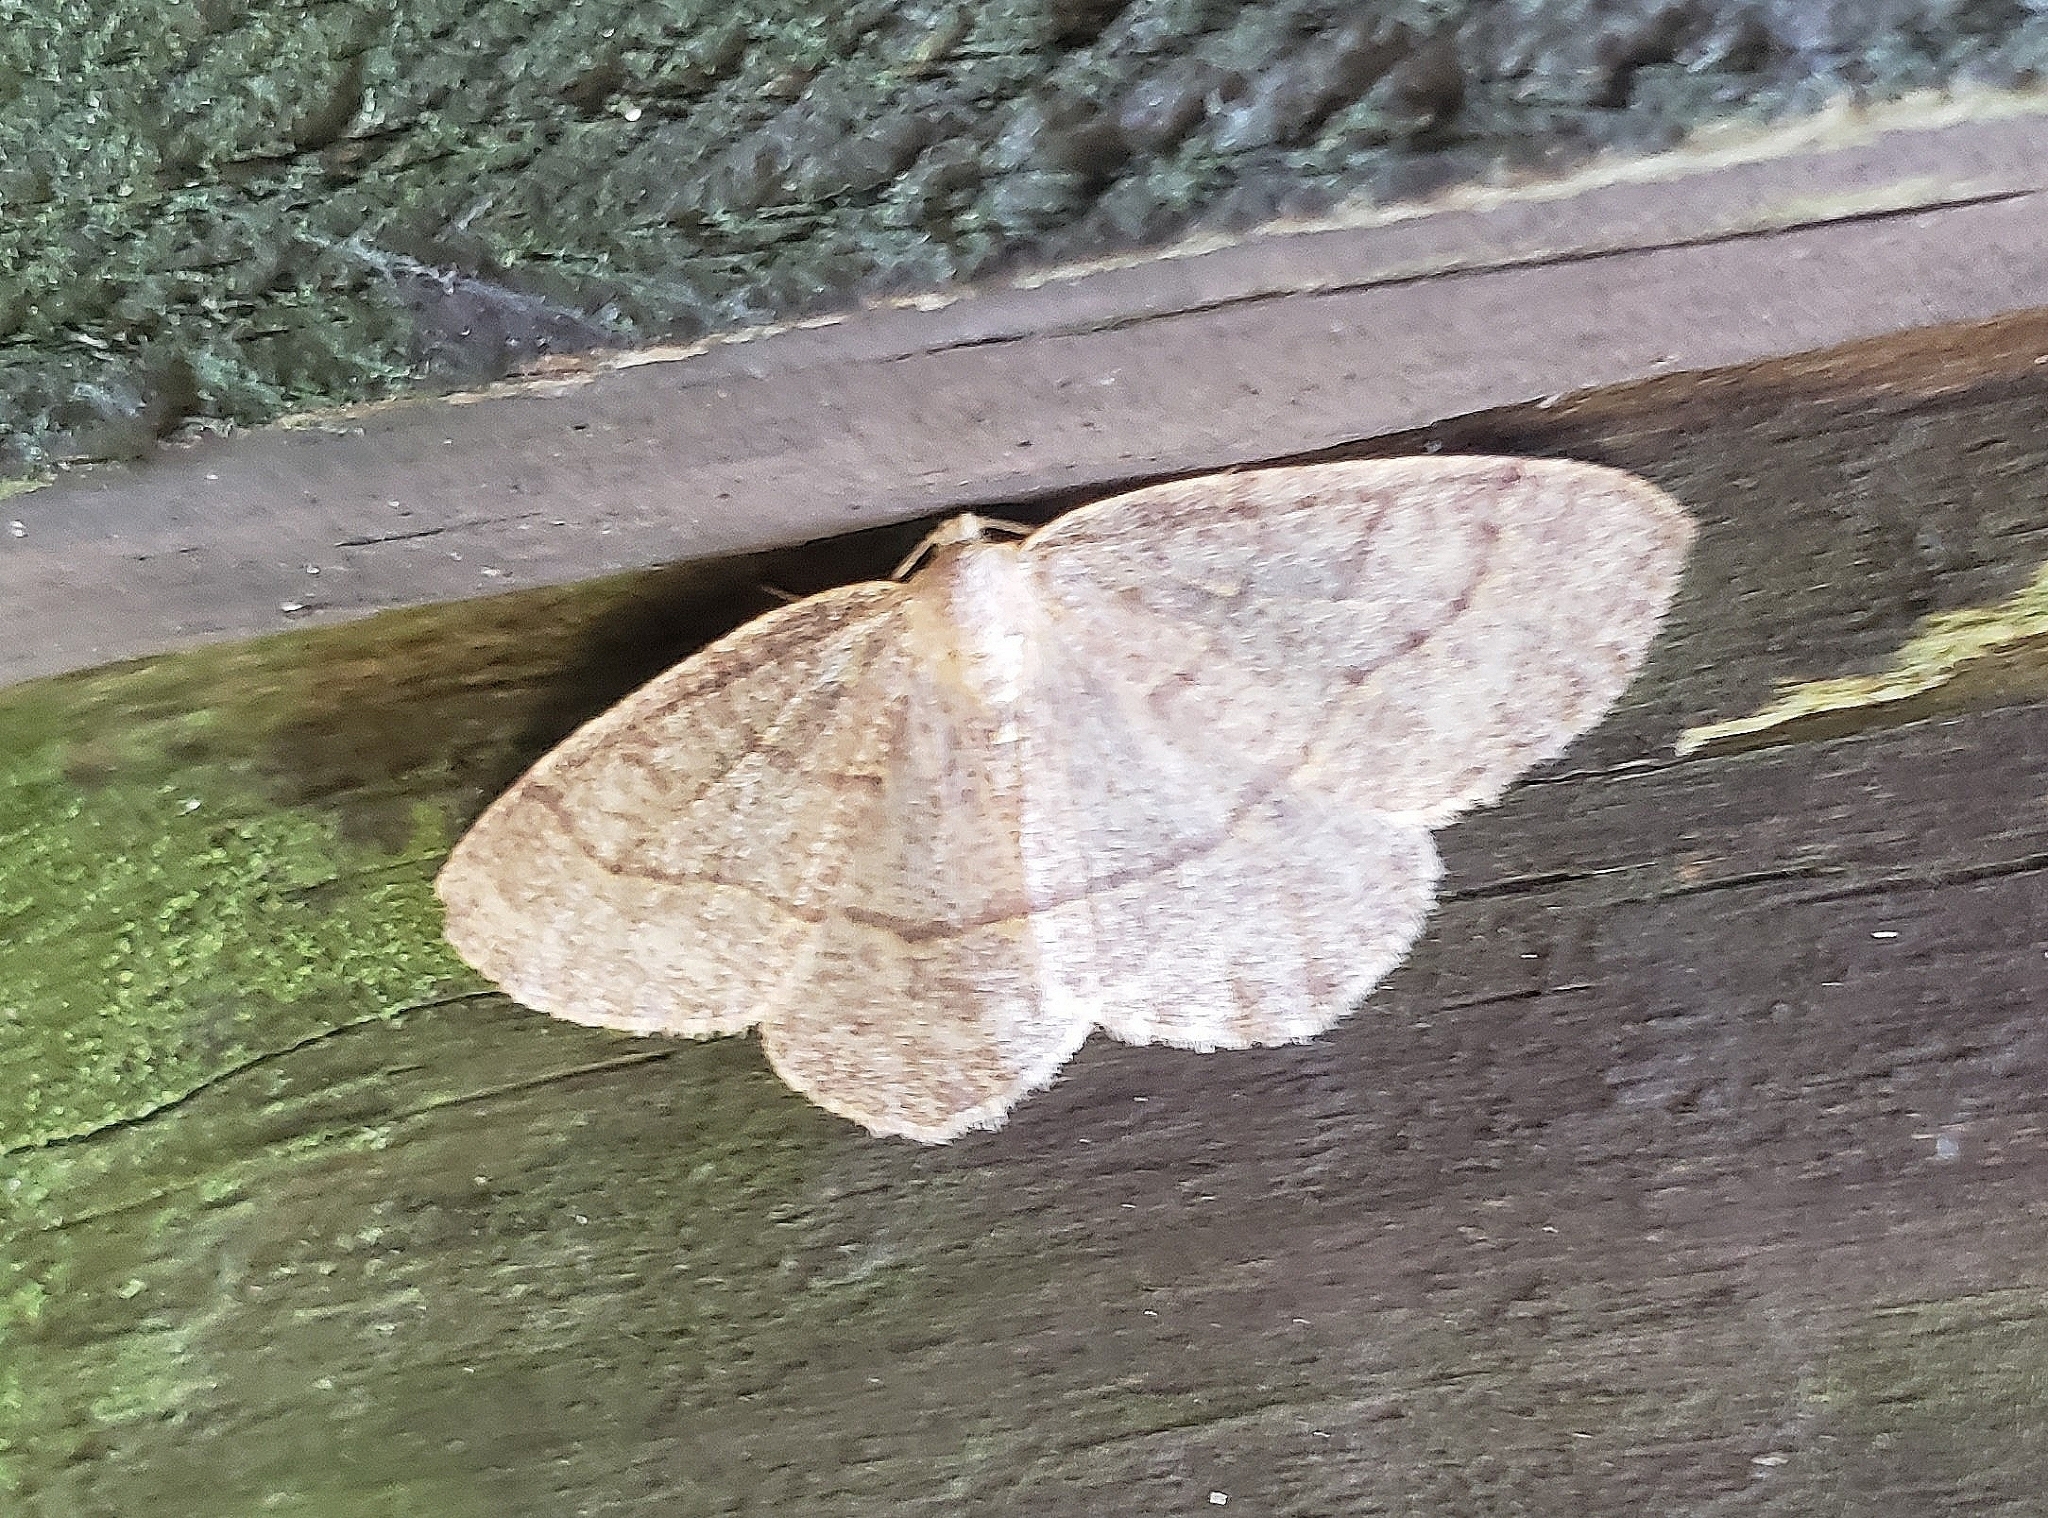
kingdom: Animalia
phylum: Arthropoda
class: Insecta
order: Lepidoptera
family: Geometridae
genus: Lambdina
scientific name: Lambdina fervidaria
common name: Curve-lined looper moth
